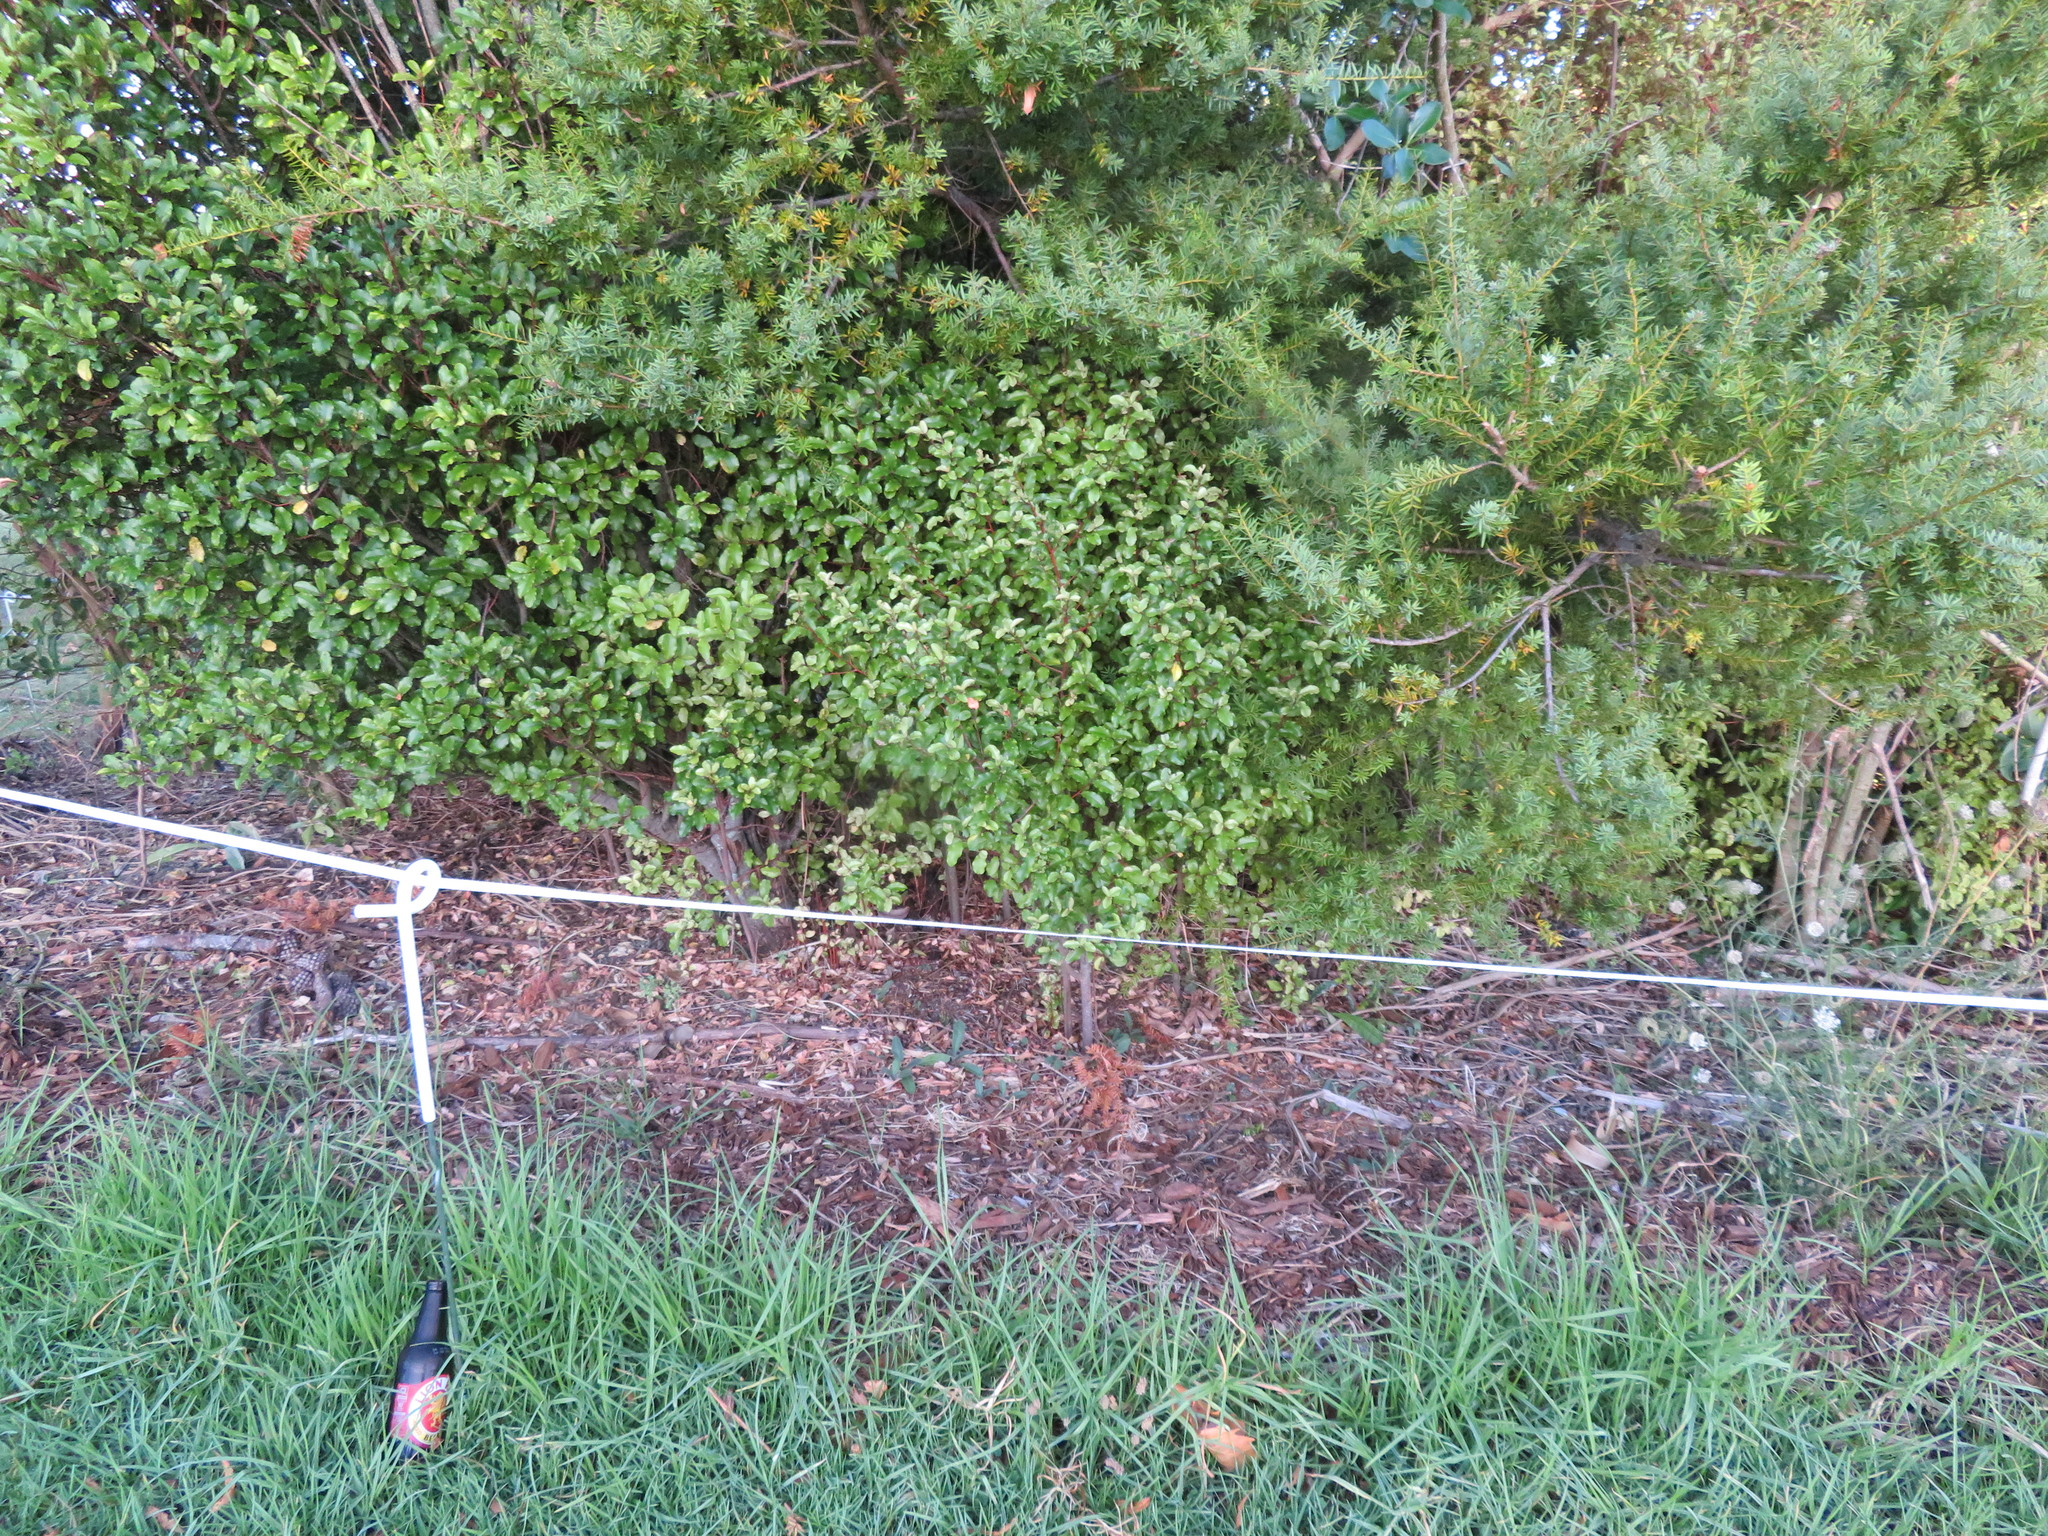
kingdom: Plantae
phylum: Tracheophyta
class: Liliopsida
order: Poales
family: Poaceae
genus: Cenchrus
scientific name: Cenchrus clandestinus
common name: Kikuyugrass
